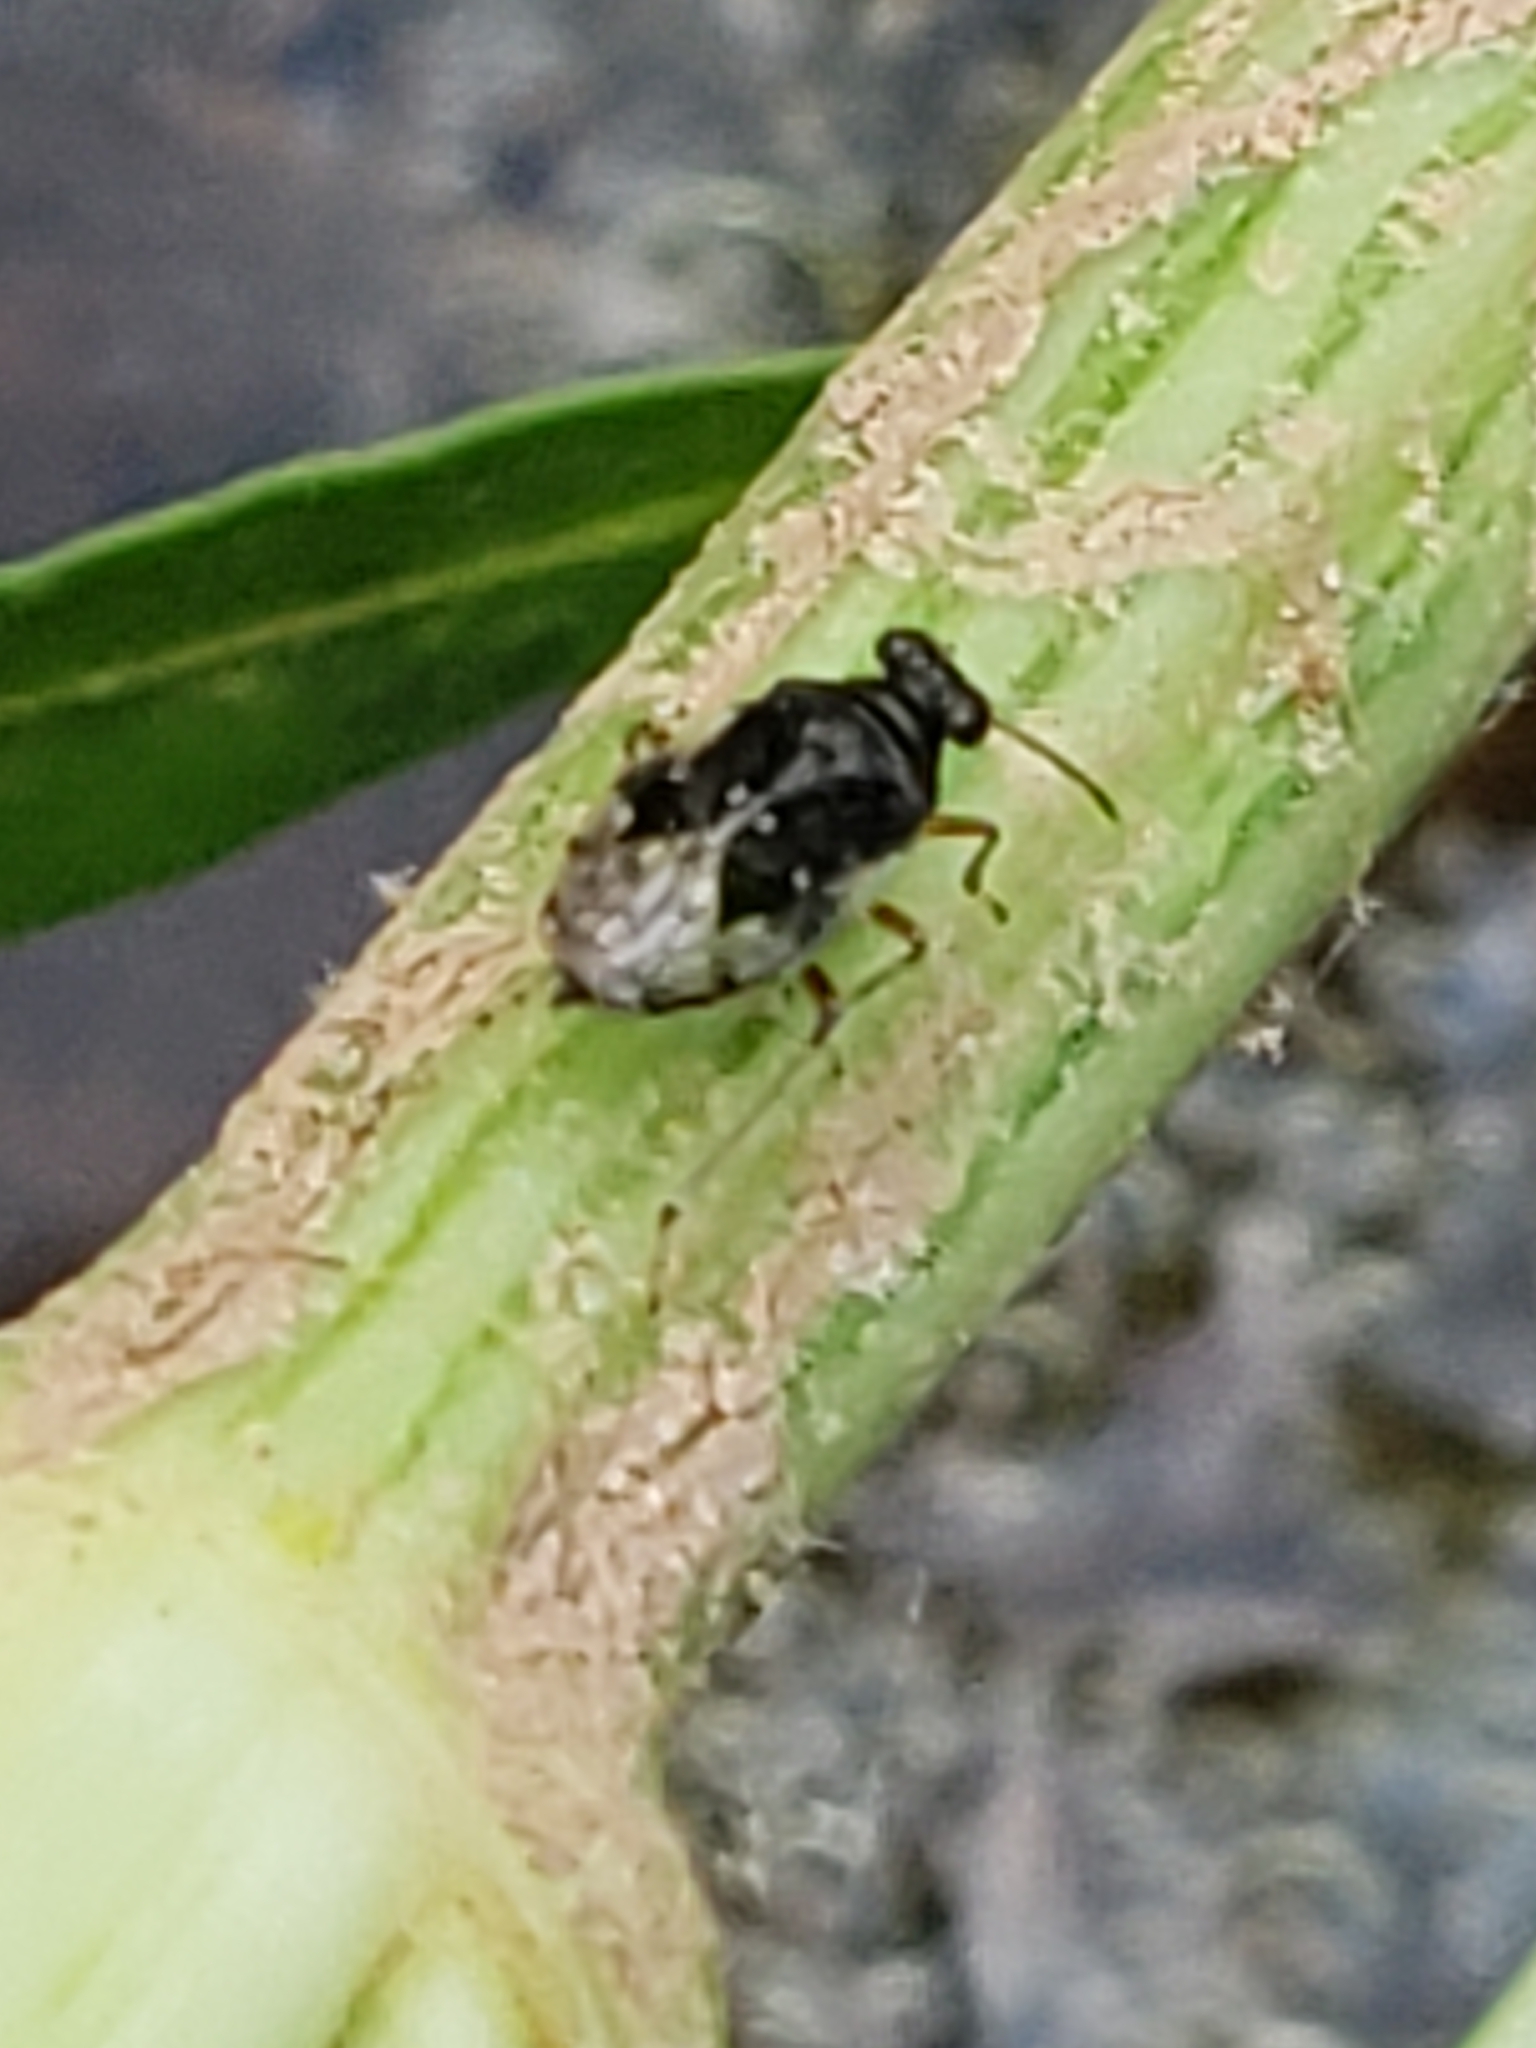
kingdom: Animalia
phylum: Arthropoda
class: Insecta
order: Hemiptera
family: Saldidae
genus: Micracanthia
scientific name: Micracanthia
